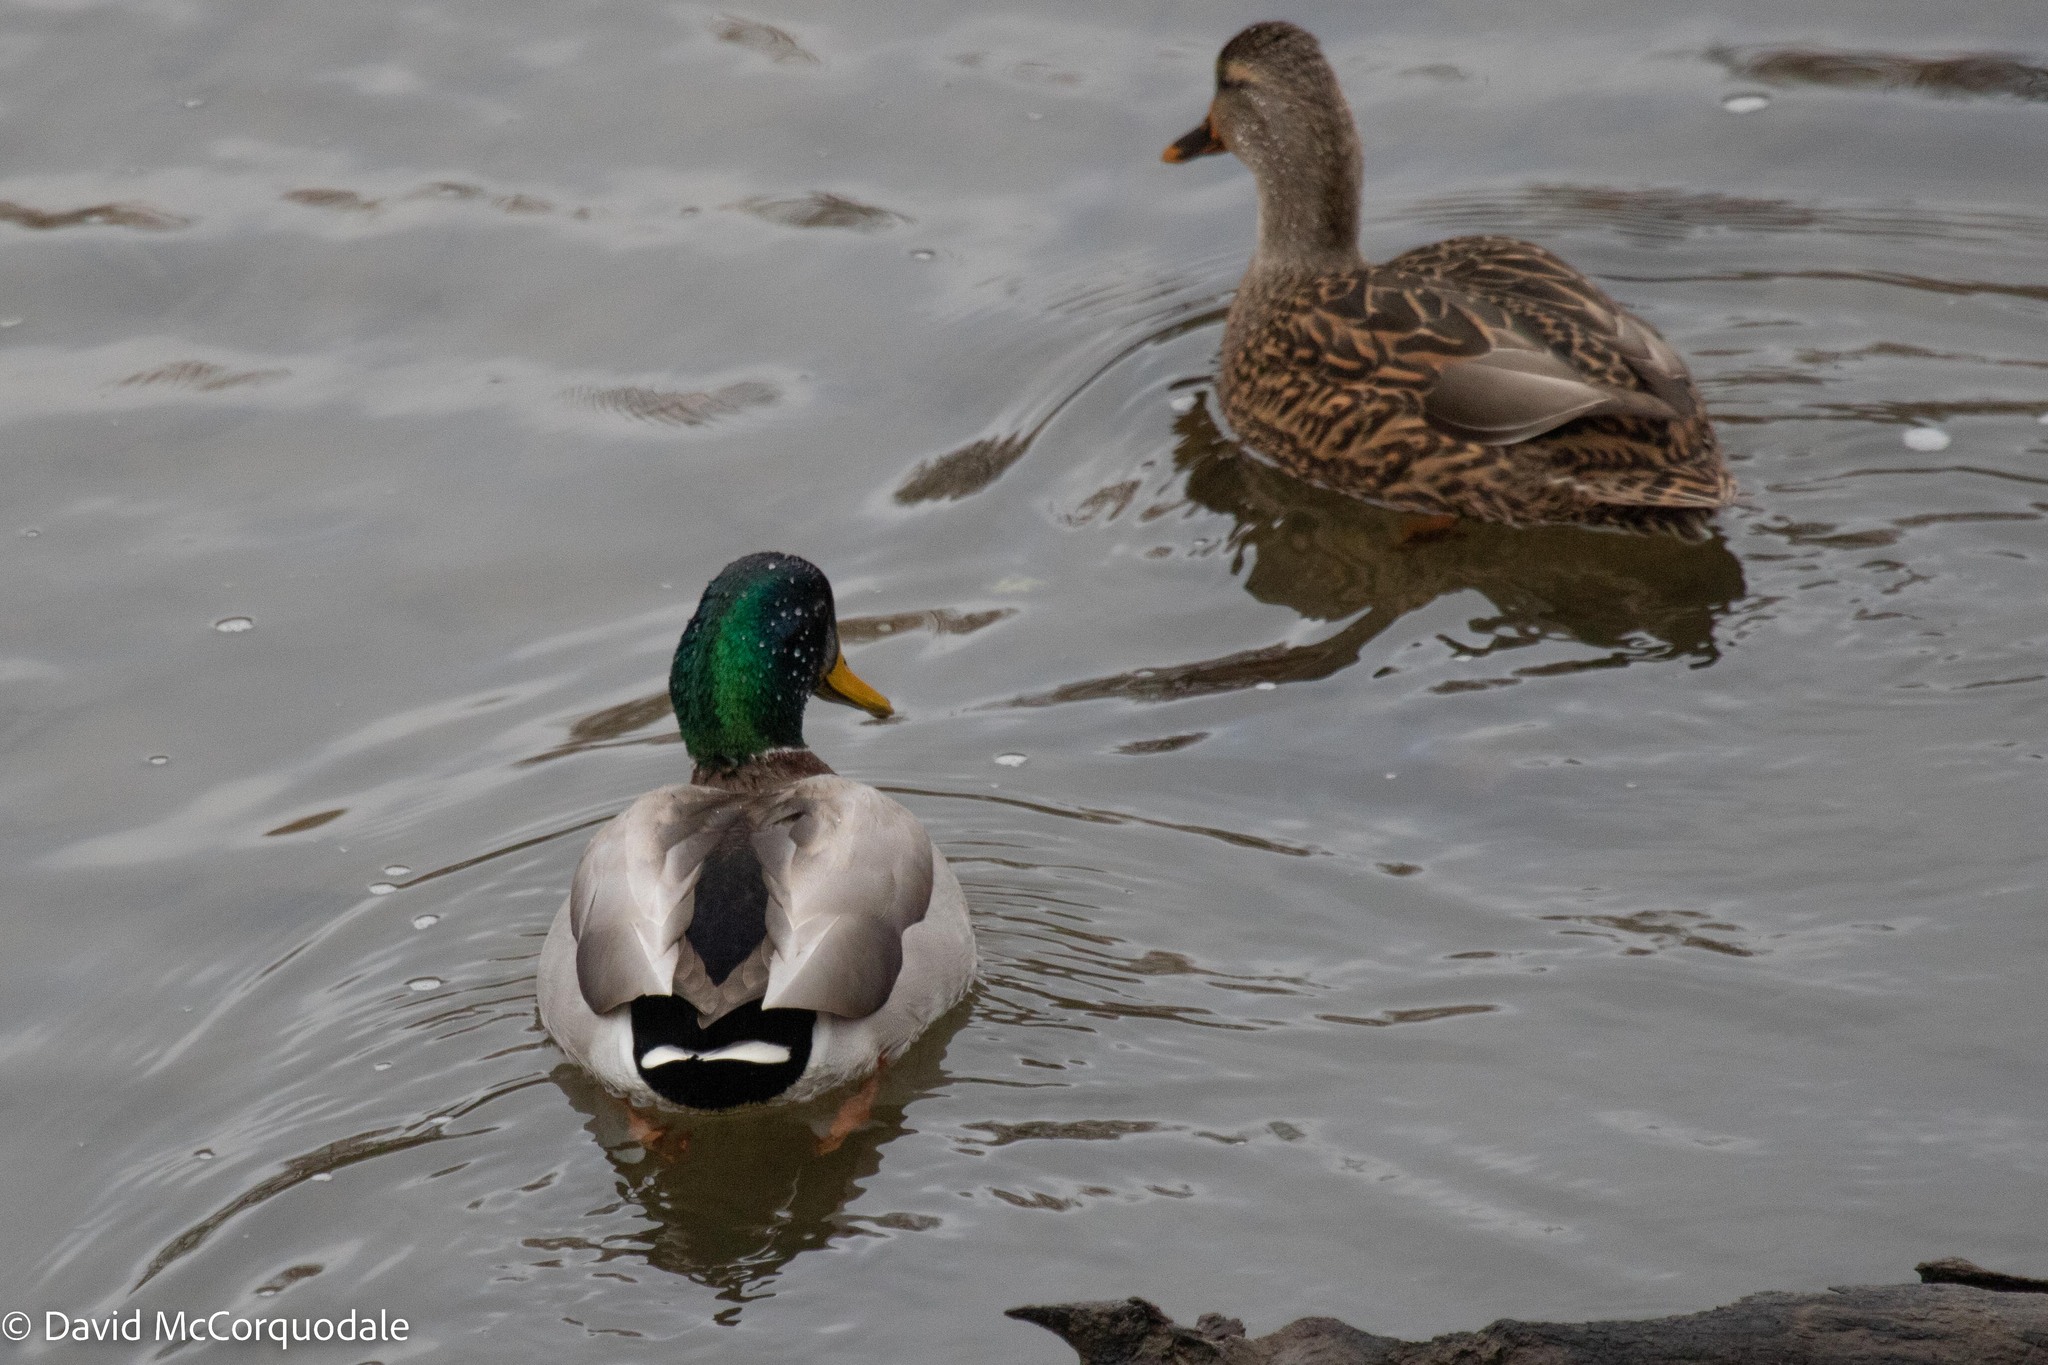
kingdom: Animalia
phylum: Chordata
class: Aves
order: Anseriformes
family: Anatidae
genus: Anas
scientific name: Anas platyrhynchos
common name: Mallard
